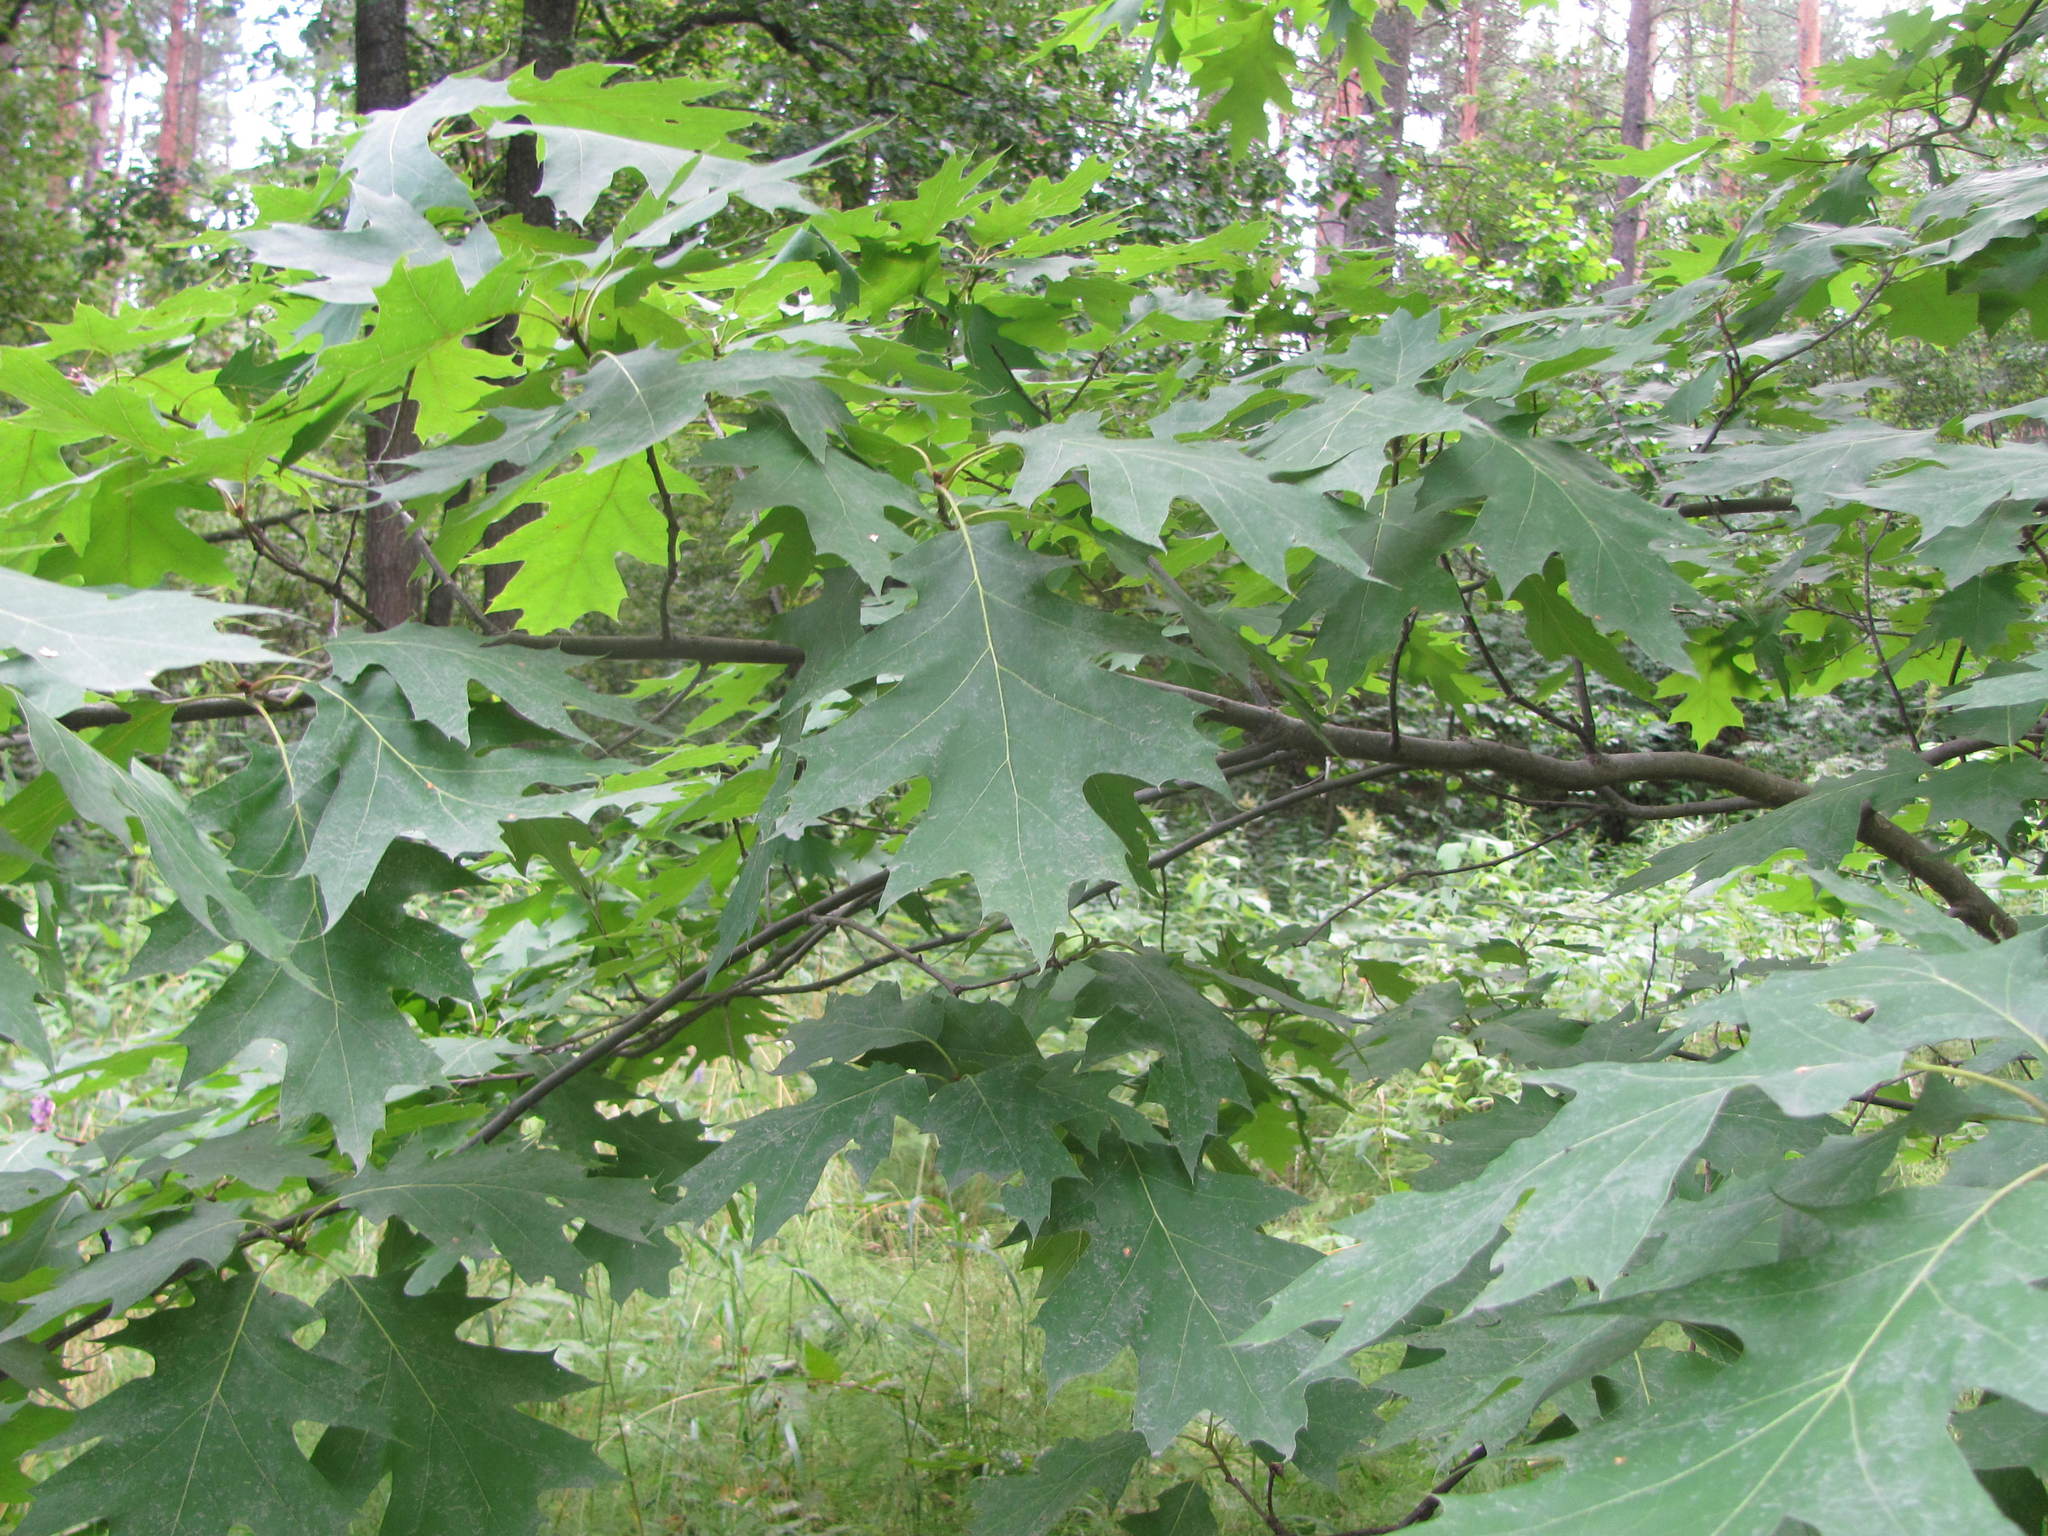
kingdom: Plantae
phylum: Tracheophyta
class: Magnoliopsida
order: Fagales
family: Fagaceae
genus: Quercus
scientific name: Quercus rubra
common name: Red oak
